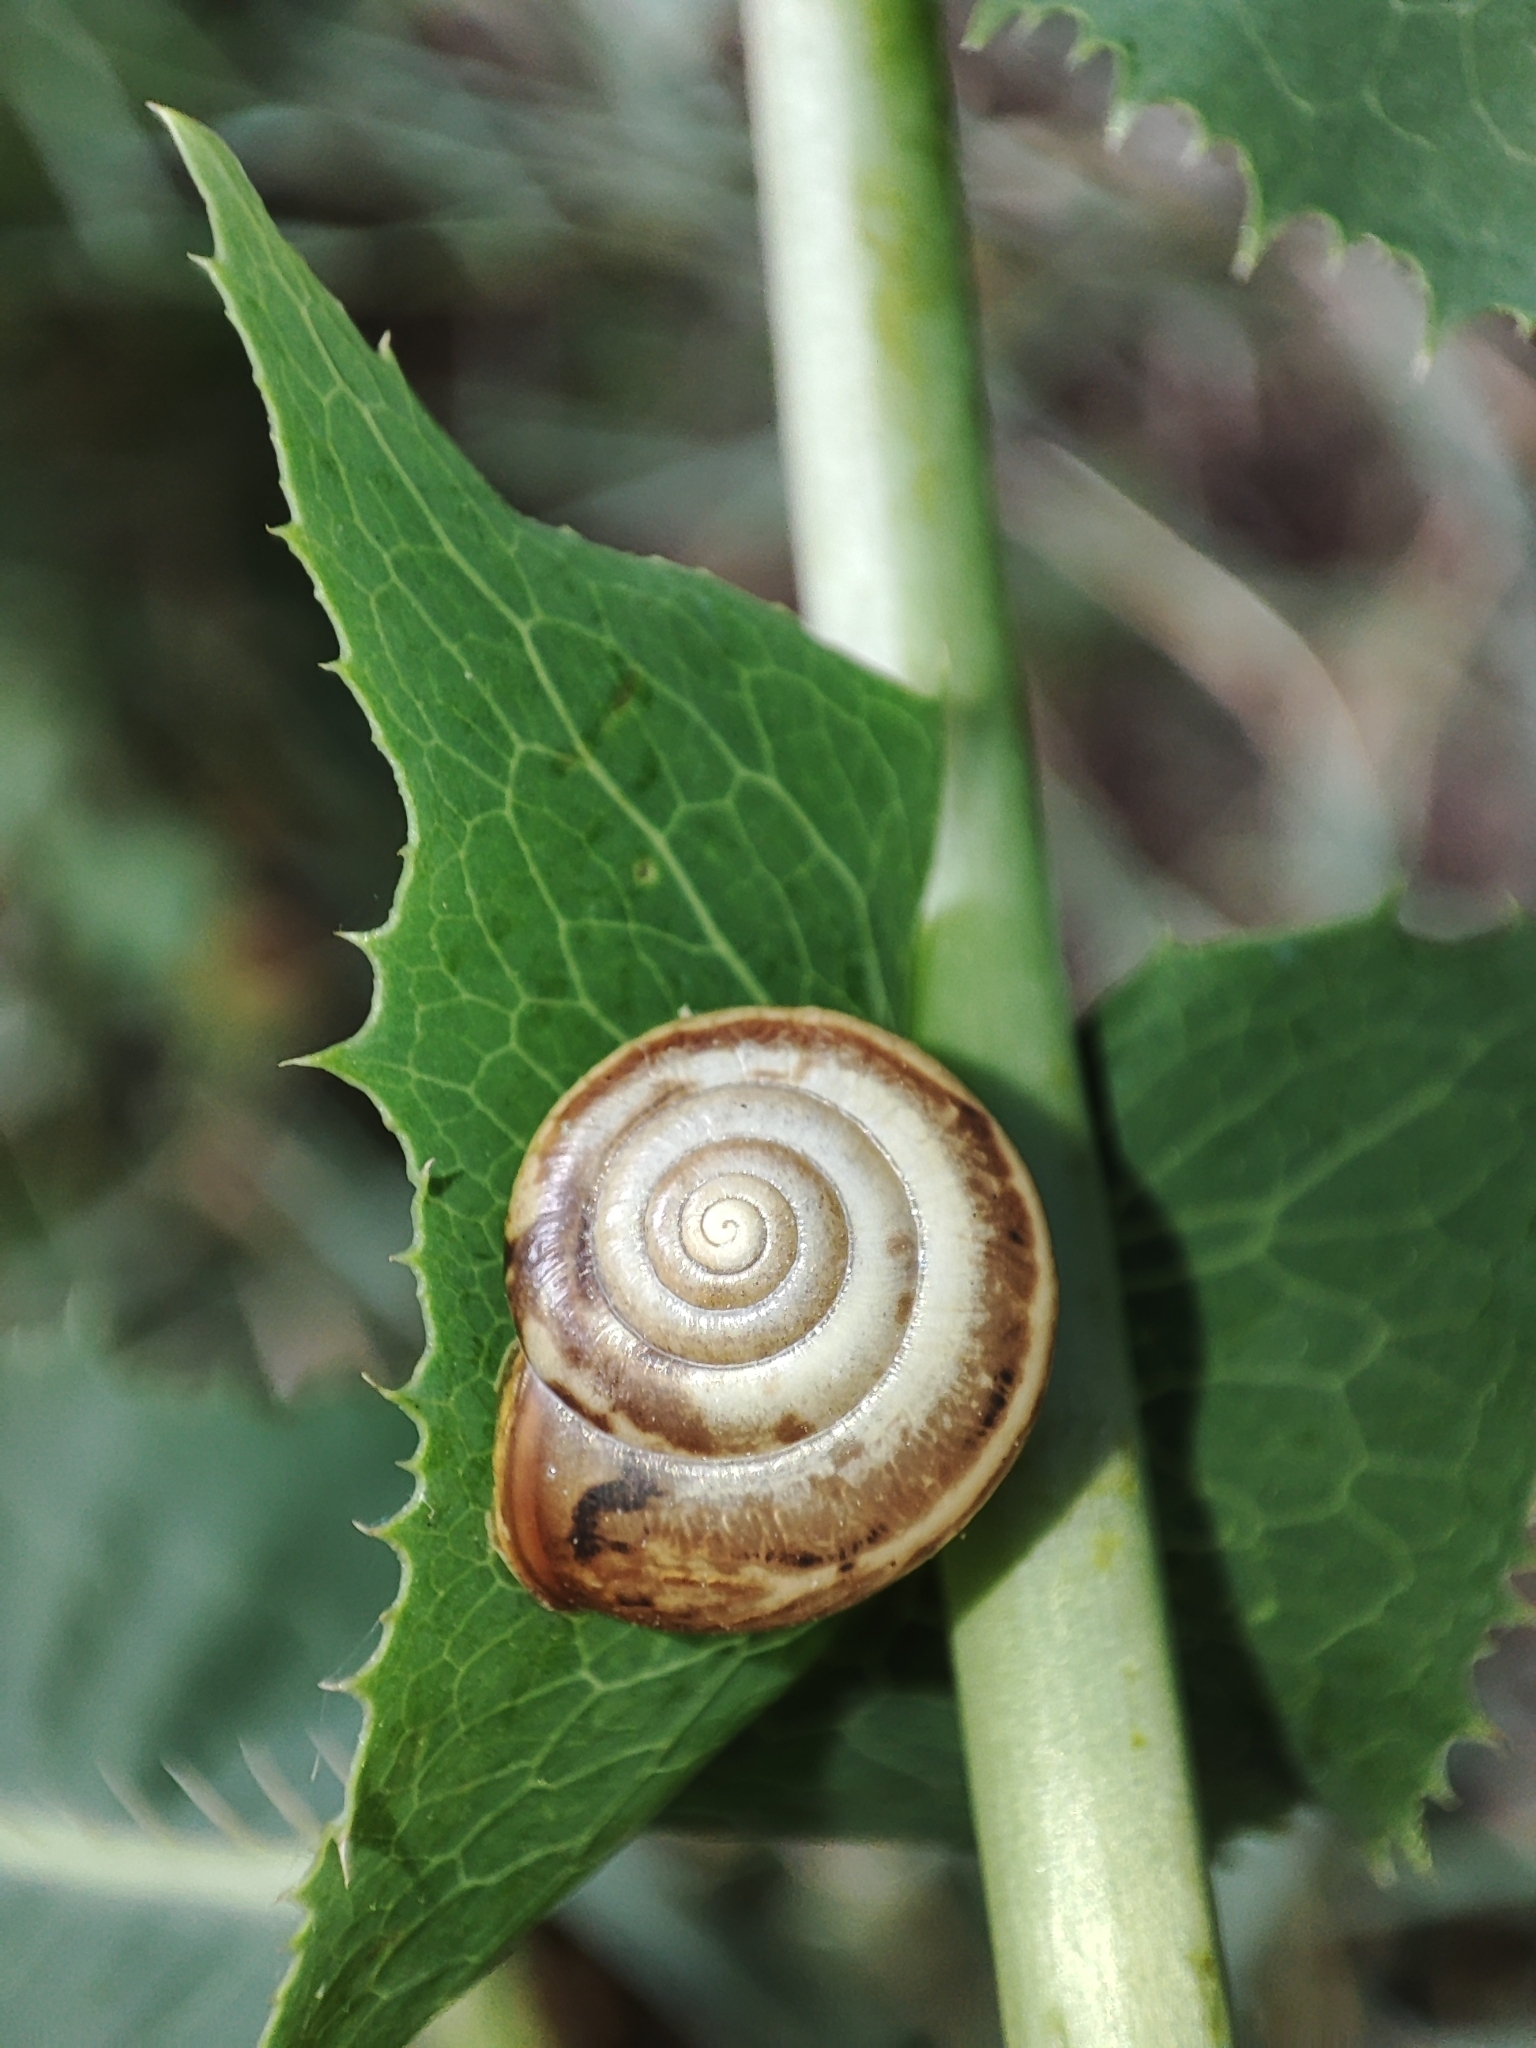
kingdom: Animalia
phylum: Mollusca
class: Gastropoda
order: Stylommatophora
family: Hygromiidae
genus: Monacha
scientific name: Monacha cartusiana
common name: Carthusian snail
